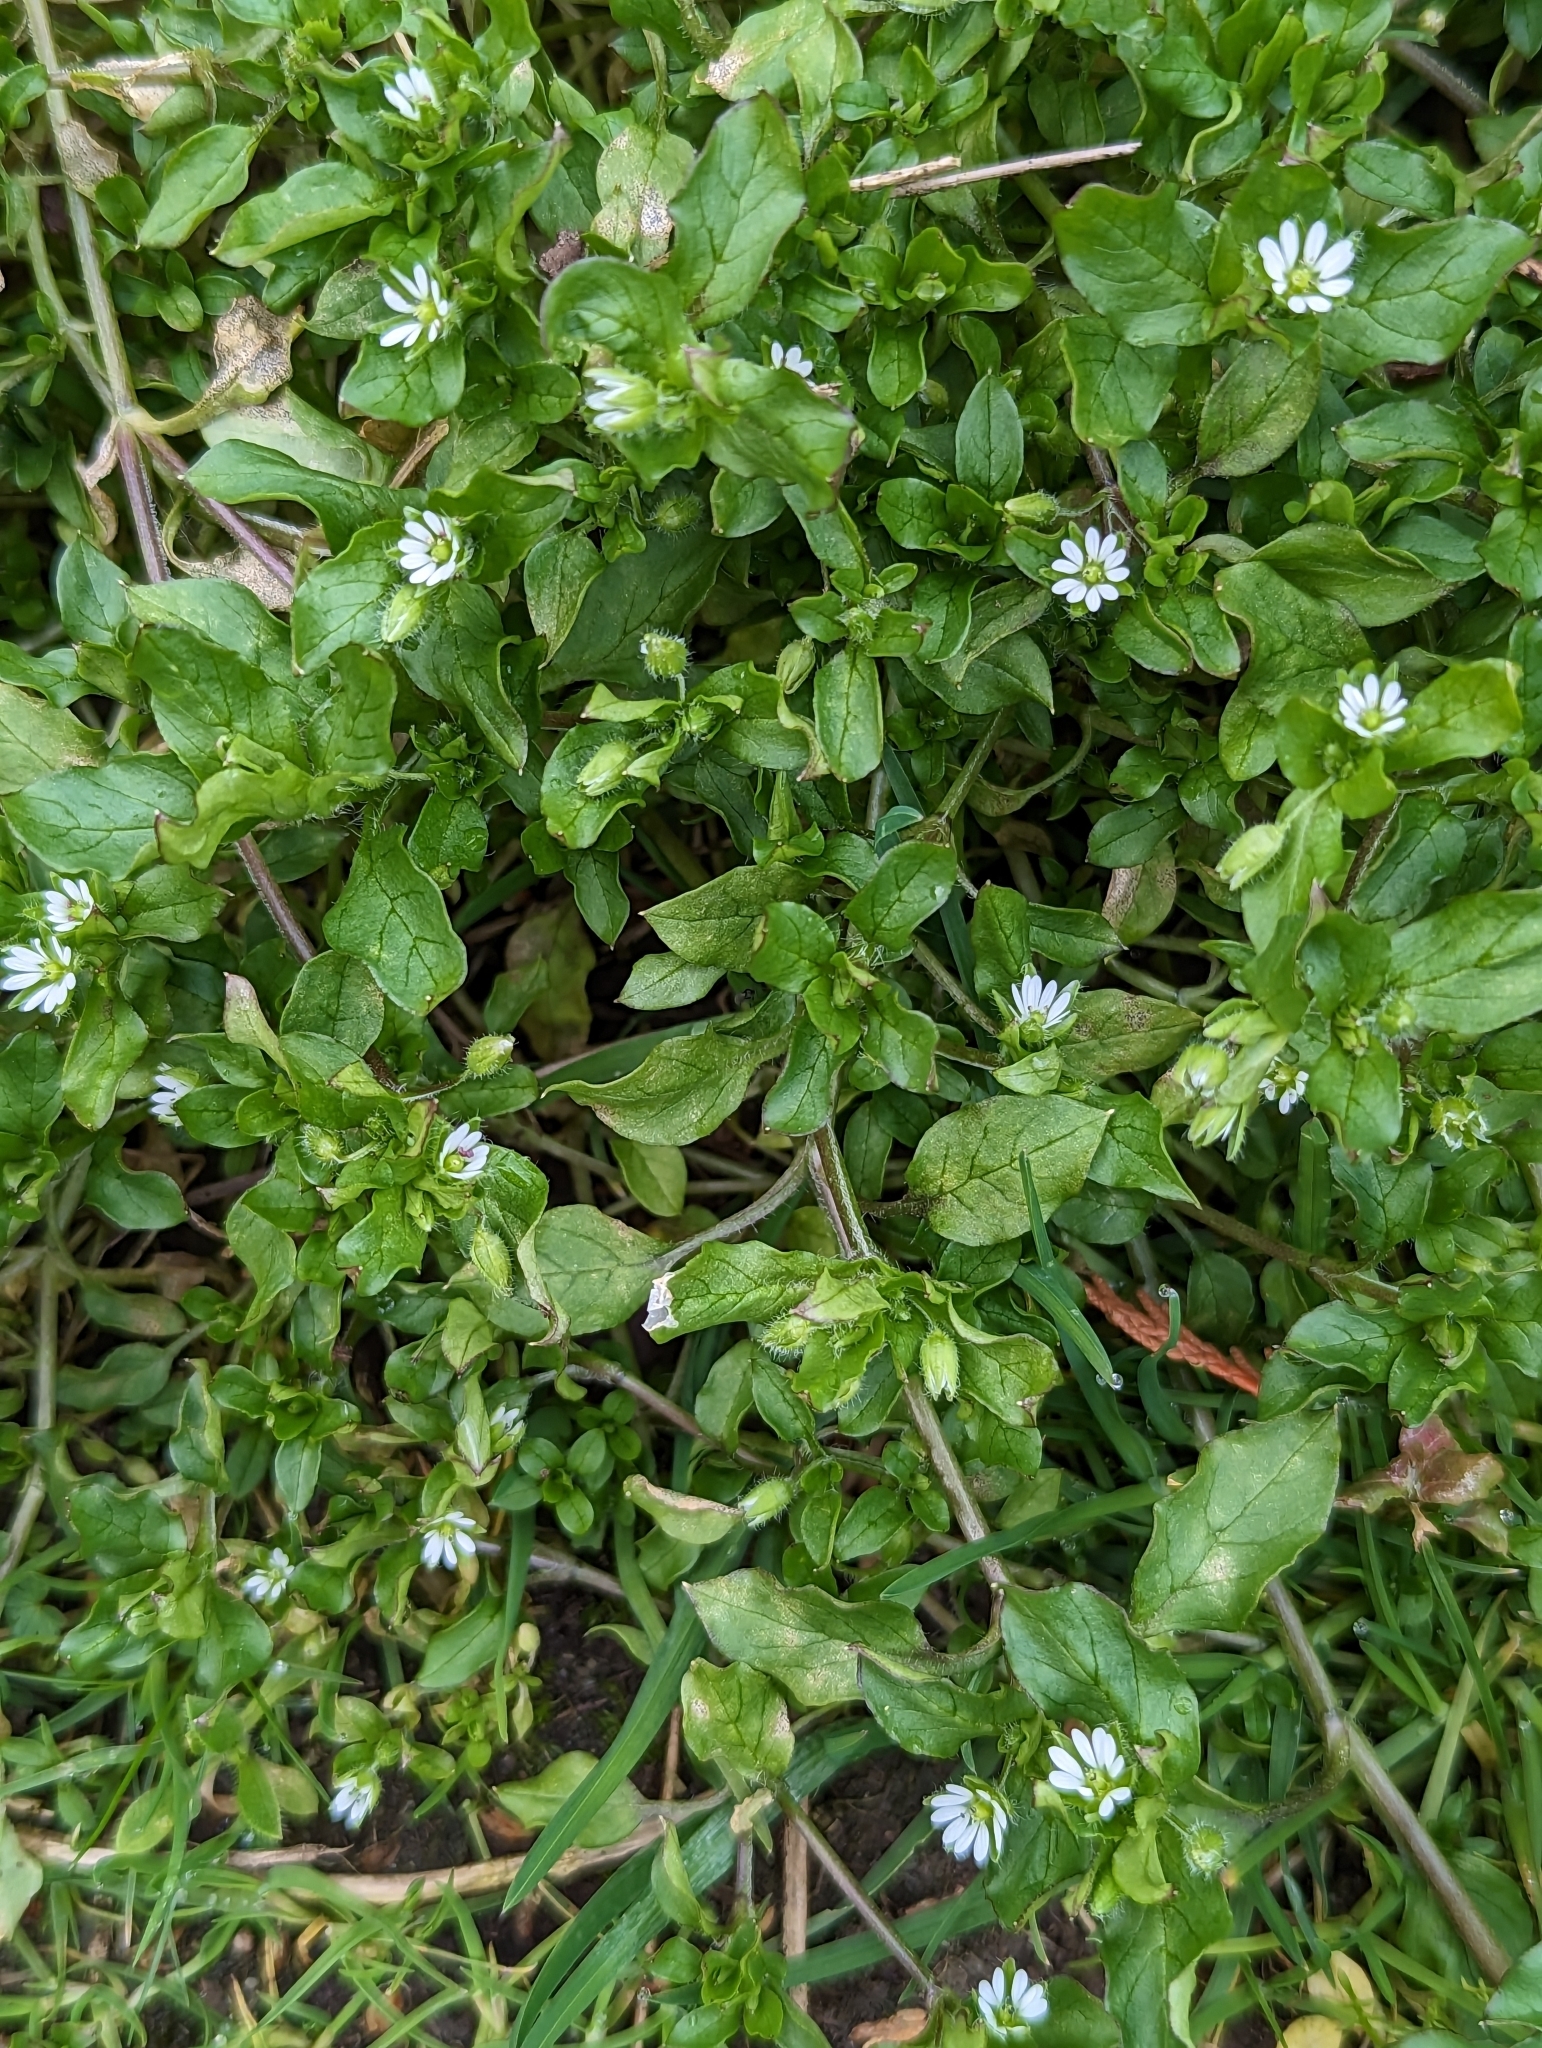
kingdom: Plantae
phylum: Tracheophyta
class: Magnoliopsida
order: Caryophyllales
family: Caryophyllaceae
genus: Stellaria
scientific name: Stellaria media
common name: Common chickweed
